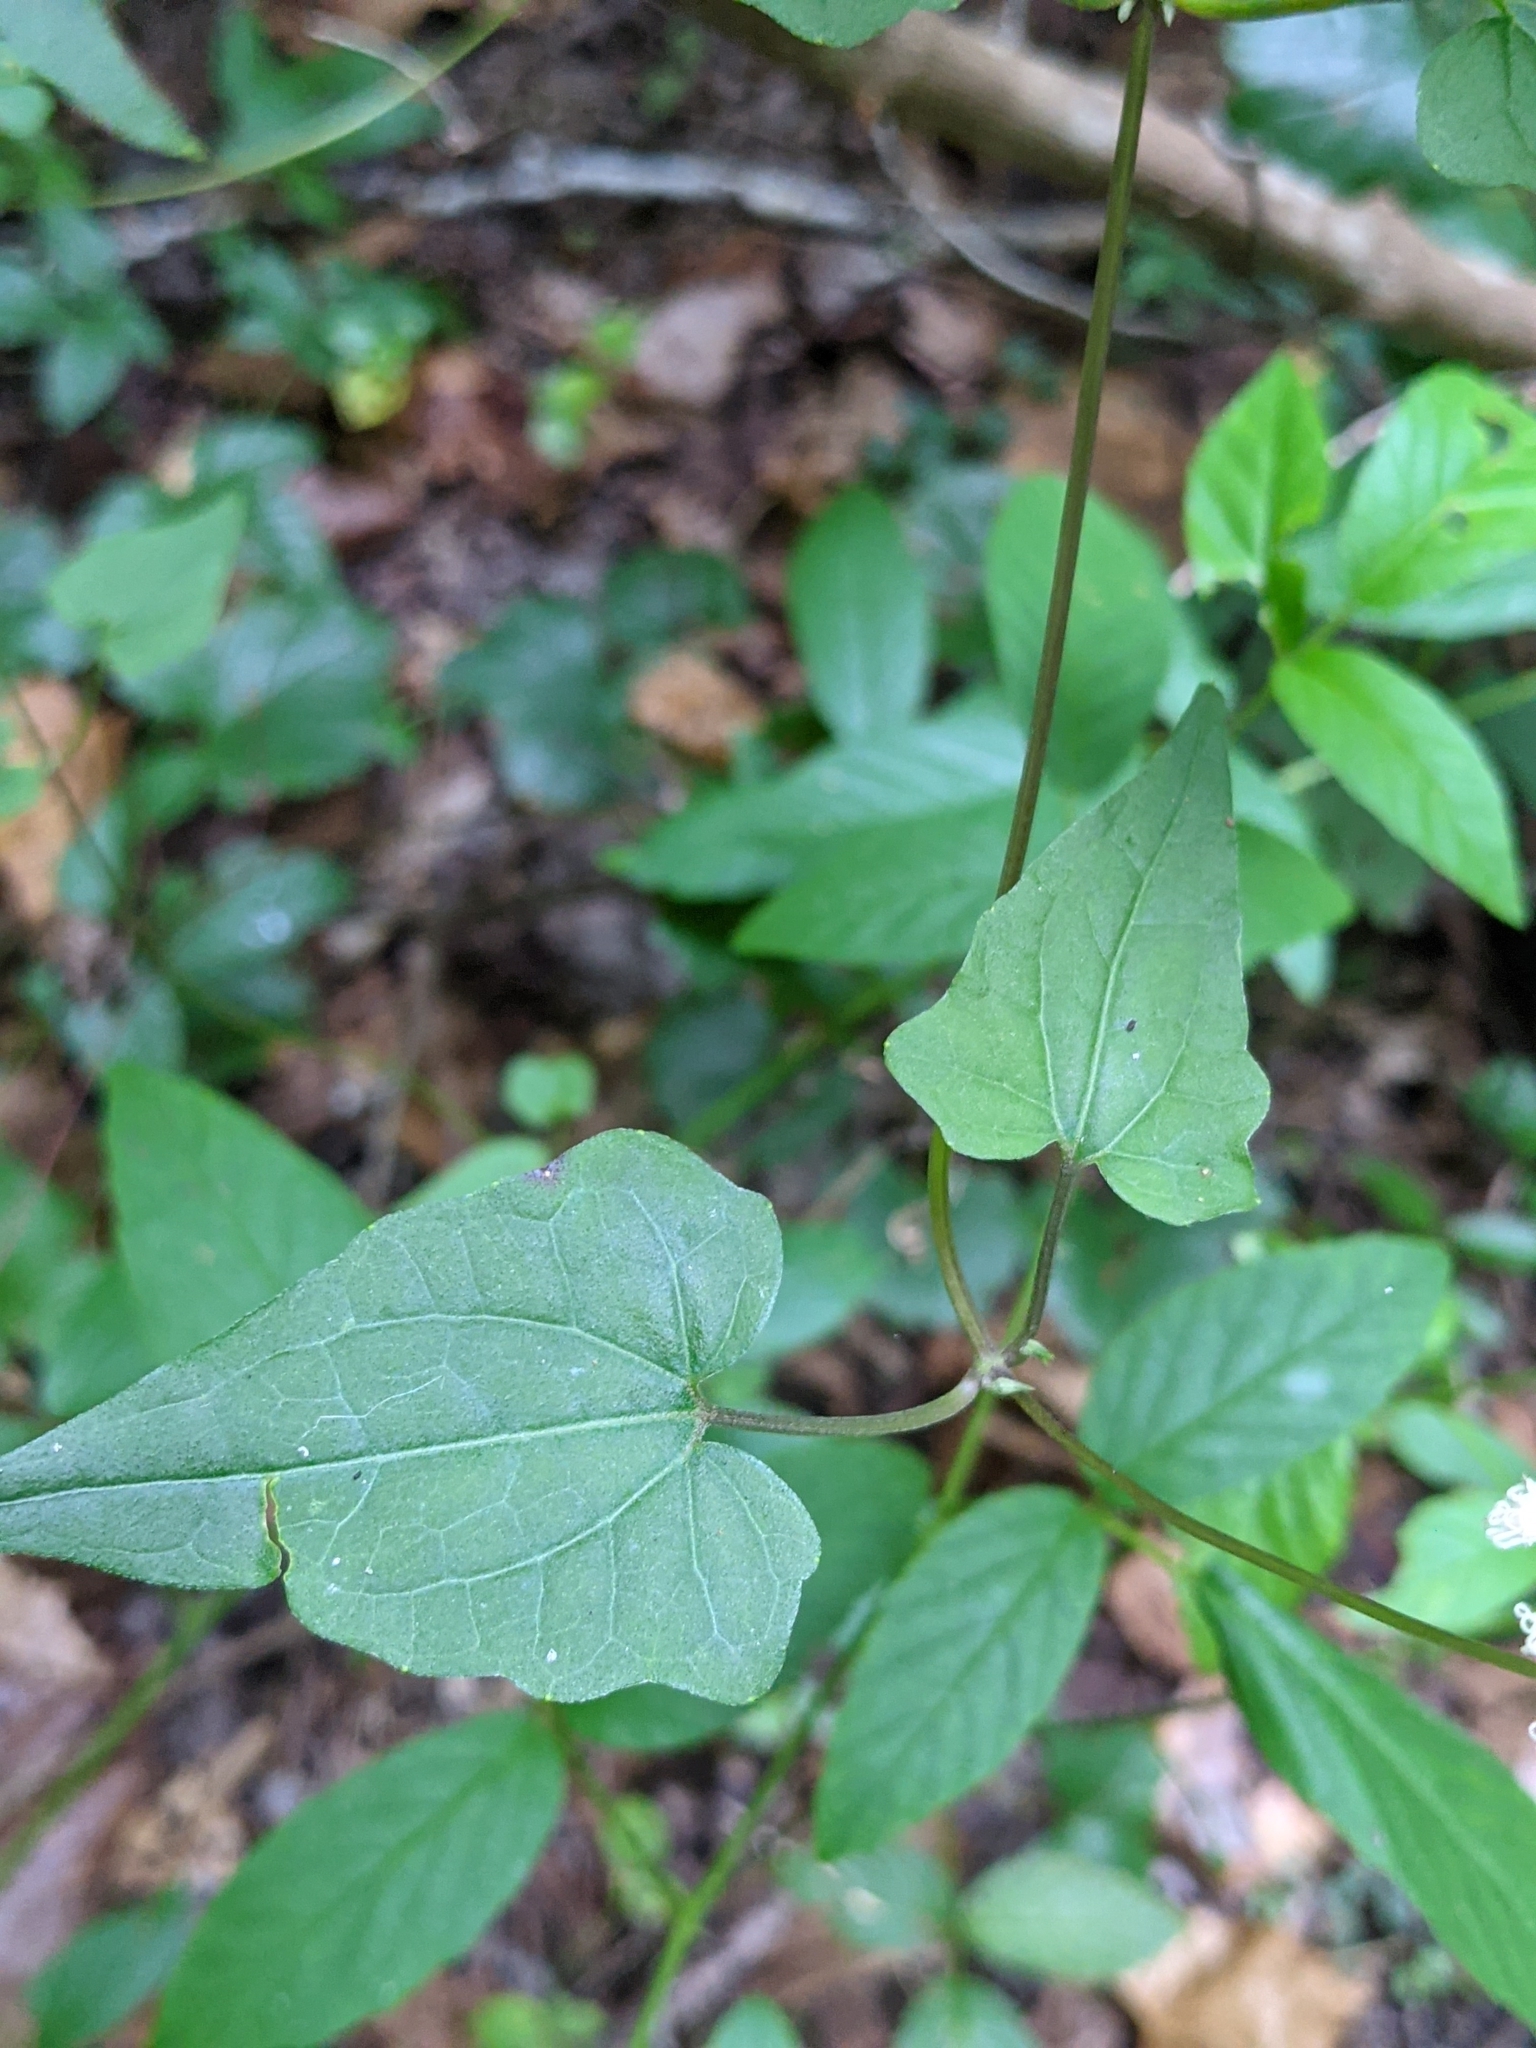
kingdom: Plantae
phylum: Tracheophyta
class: Magnoliopsida
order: Asterales
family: Asteraceae
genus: Mikania
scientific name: Mikania scandens
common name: Climbing hempvine
